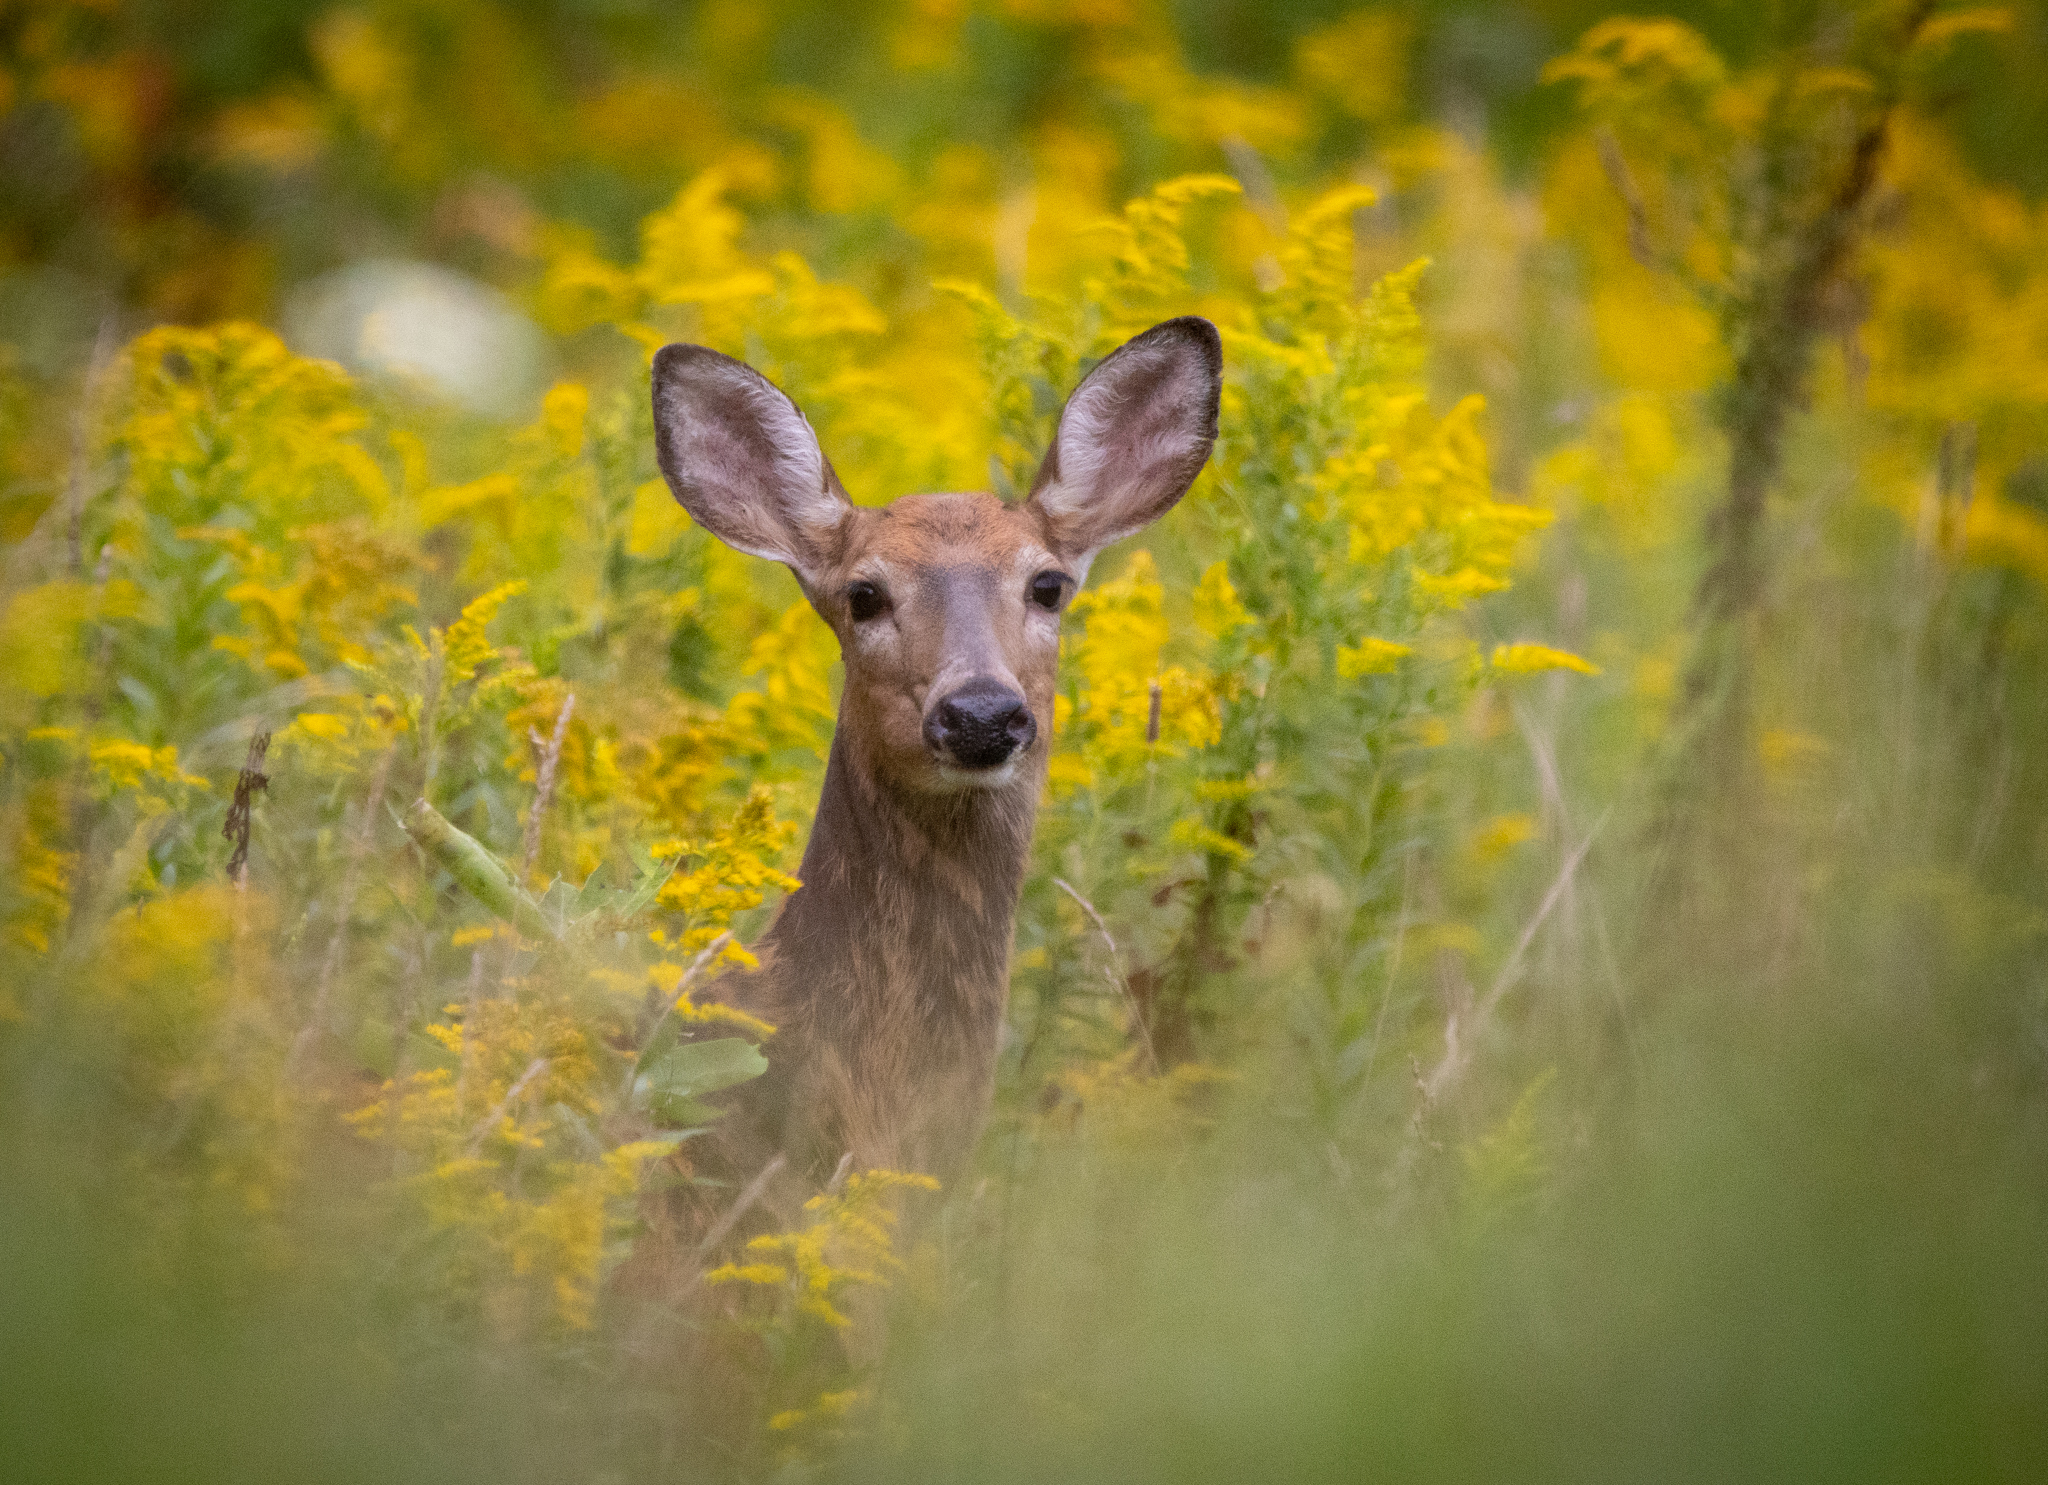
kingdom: Animalia
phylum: Chordata
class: Mammalia
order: Artiodactyla
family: Cervidae
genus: Odocoileus
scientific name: Odocoileus virginianus
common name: White-tailed deer
